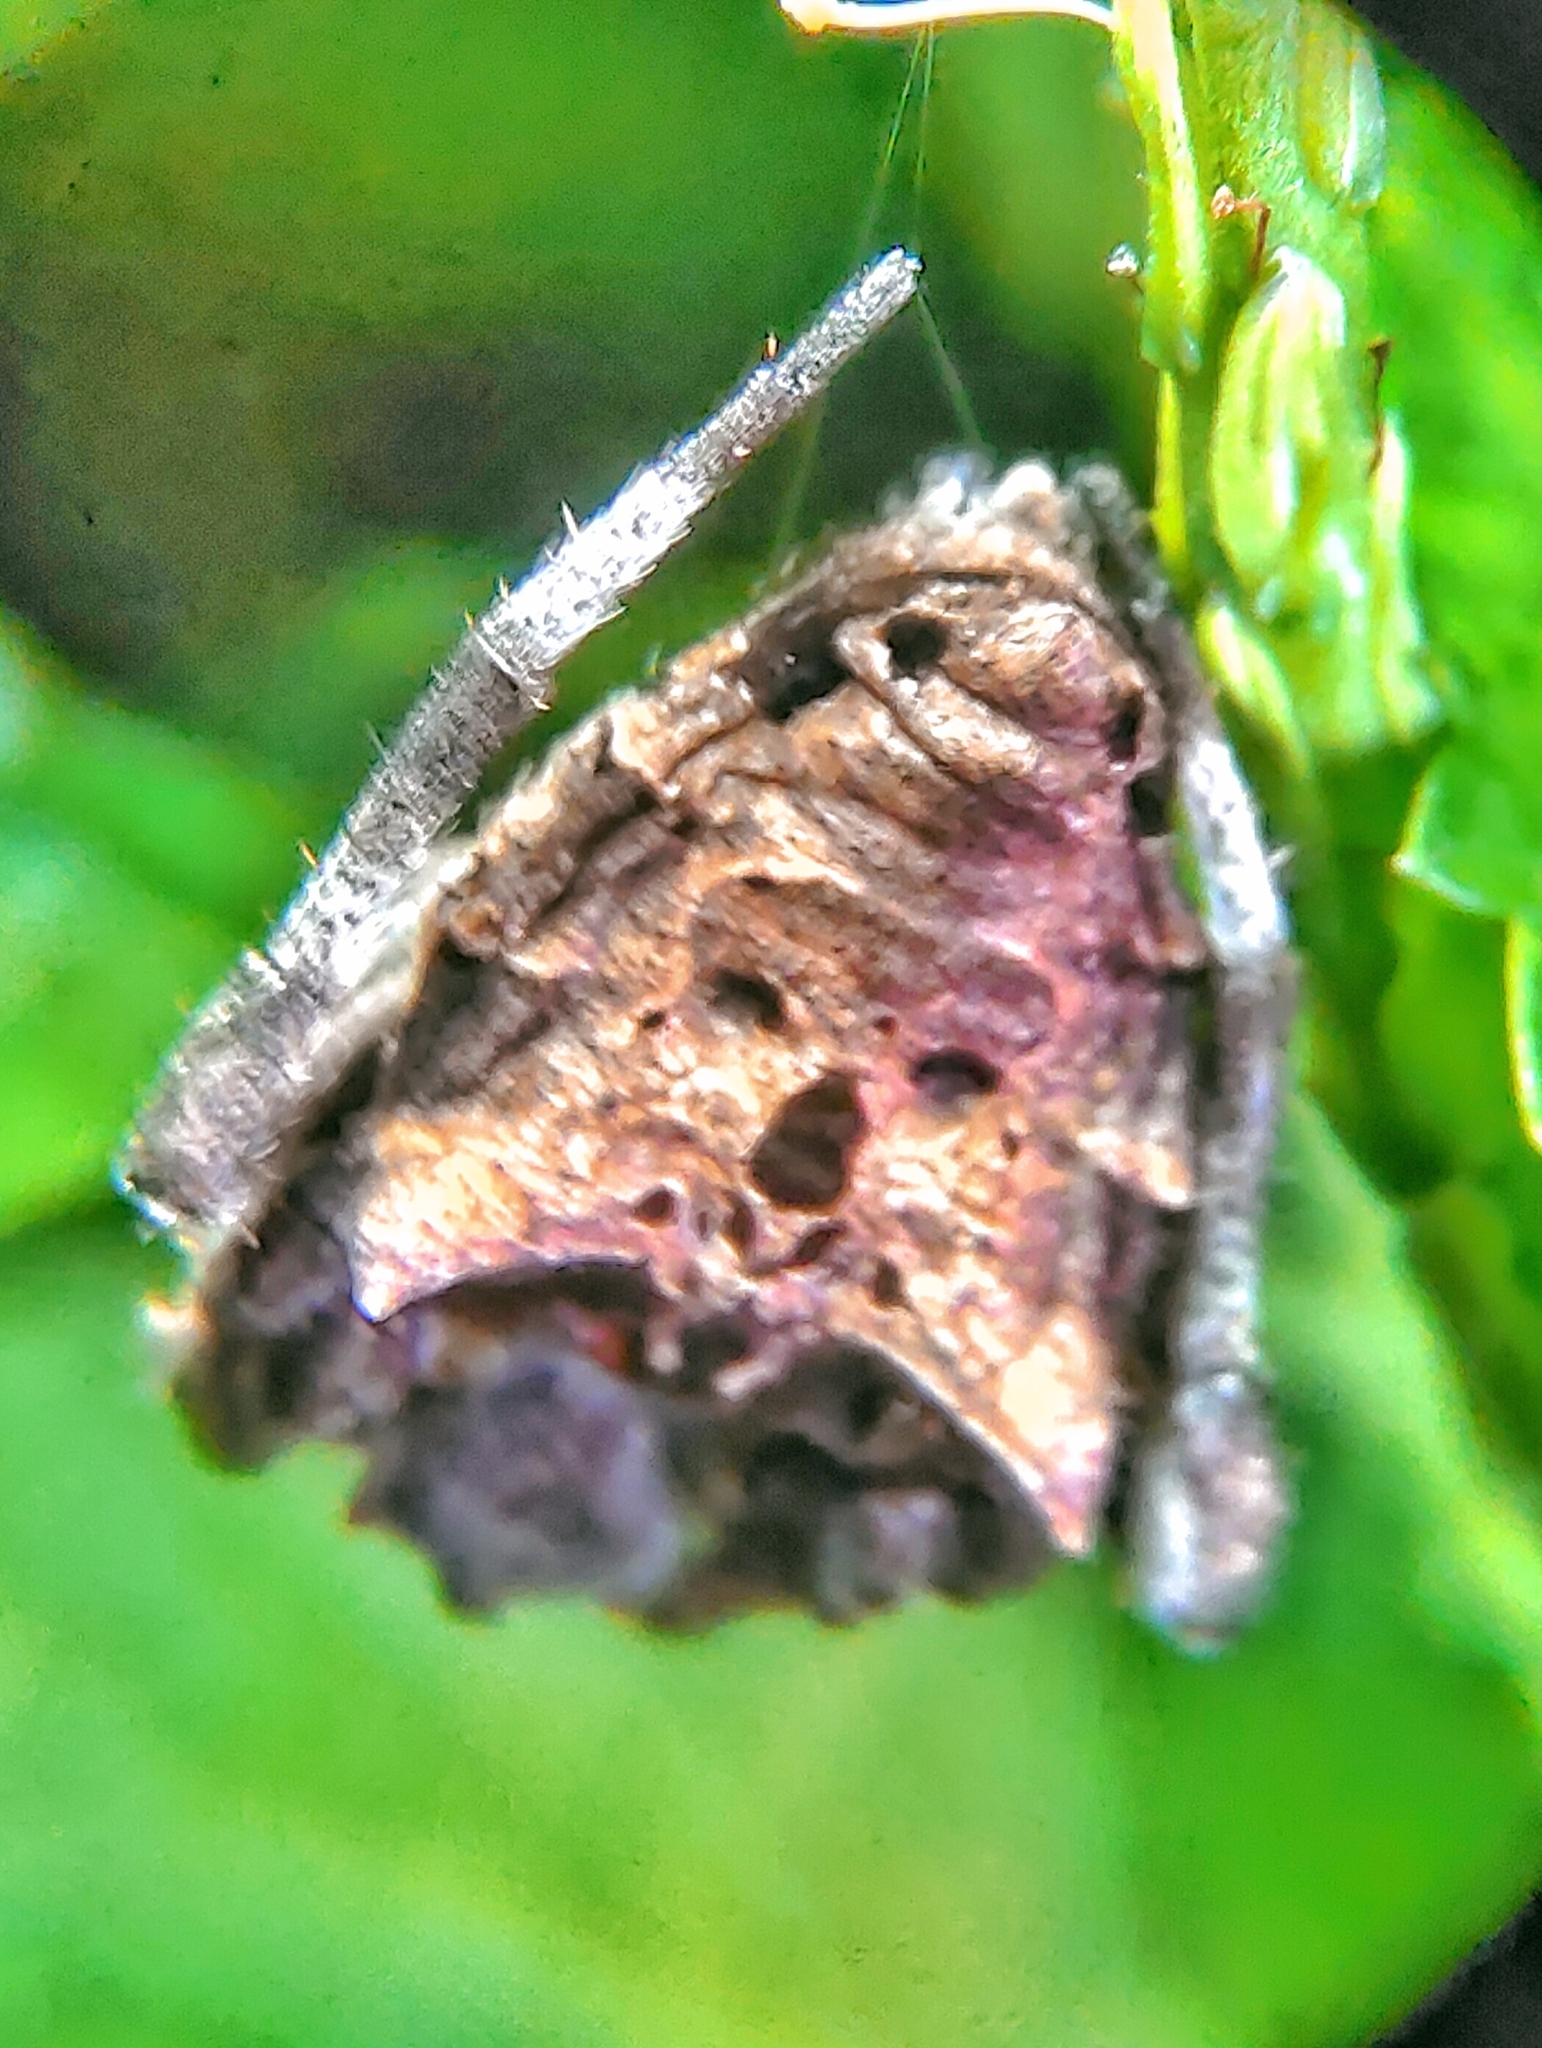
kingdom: Animalia
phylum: Arthropoda
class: Arachnida
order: Araneae
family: Araneidae
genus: Parawixia
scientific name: Parawixia dehaani
